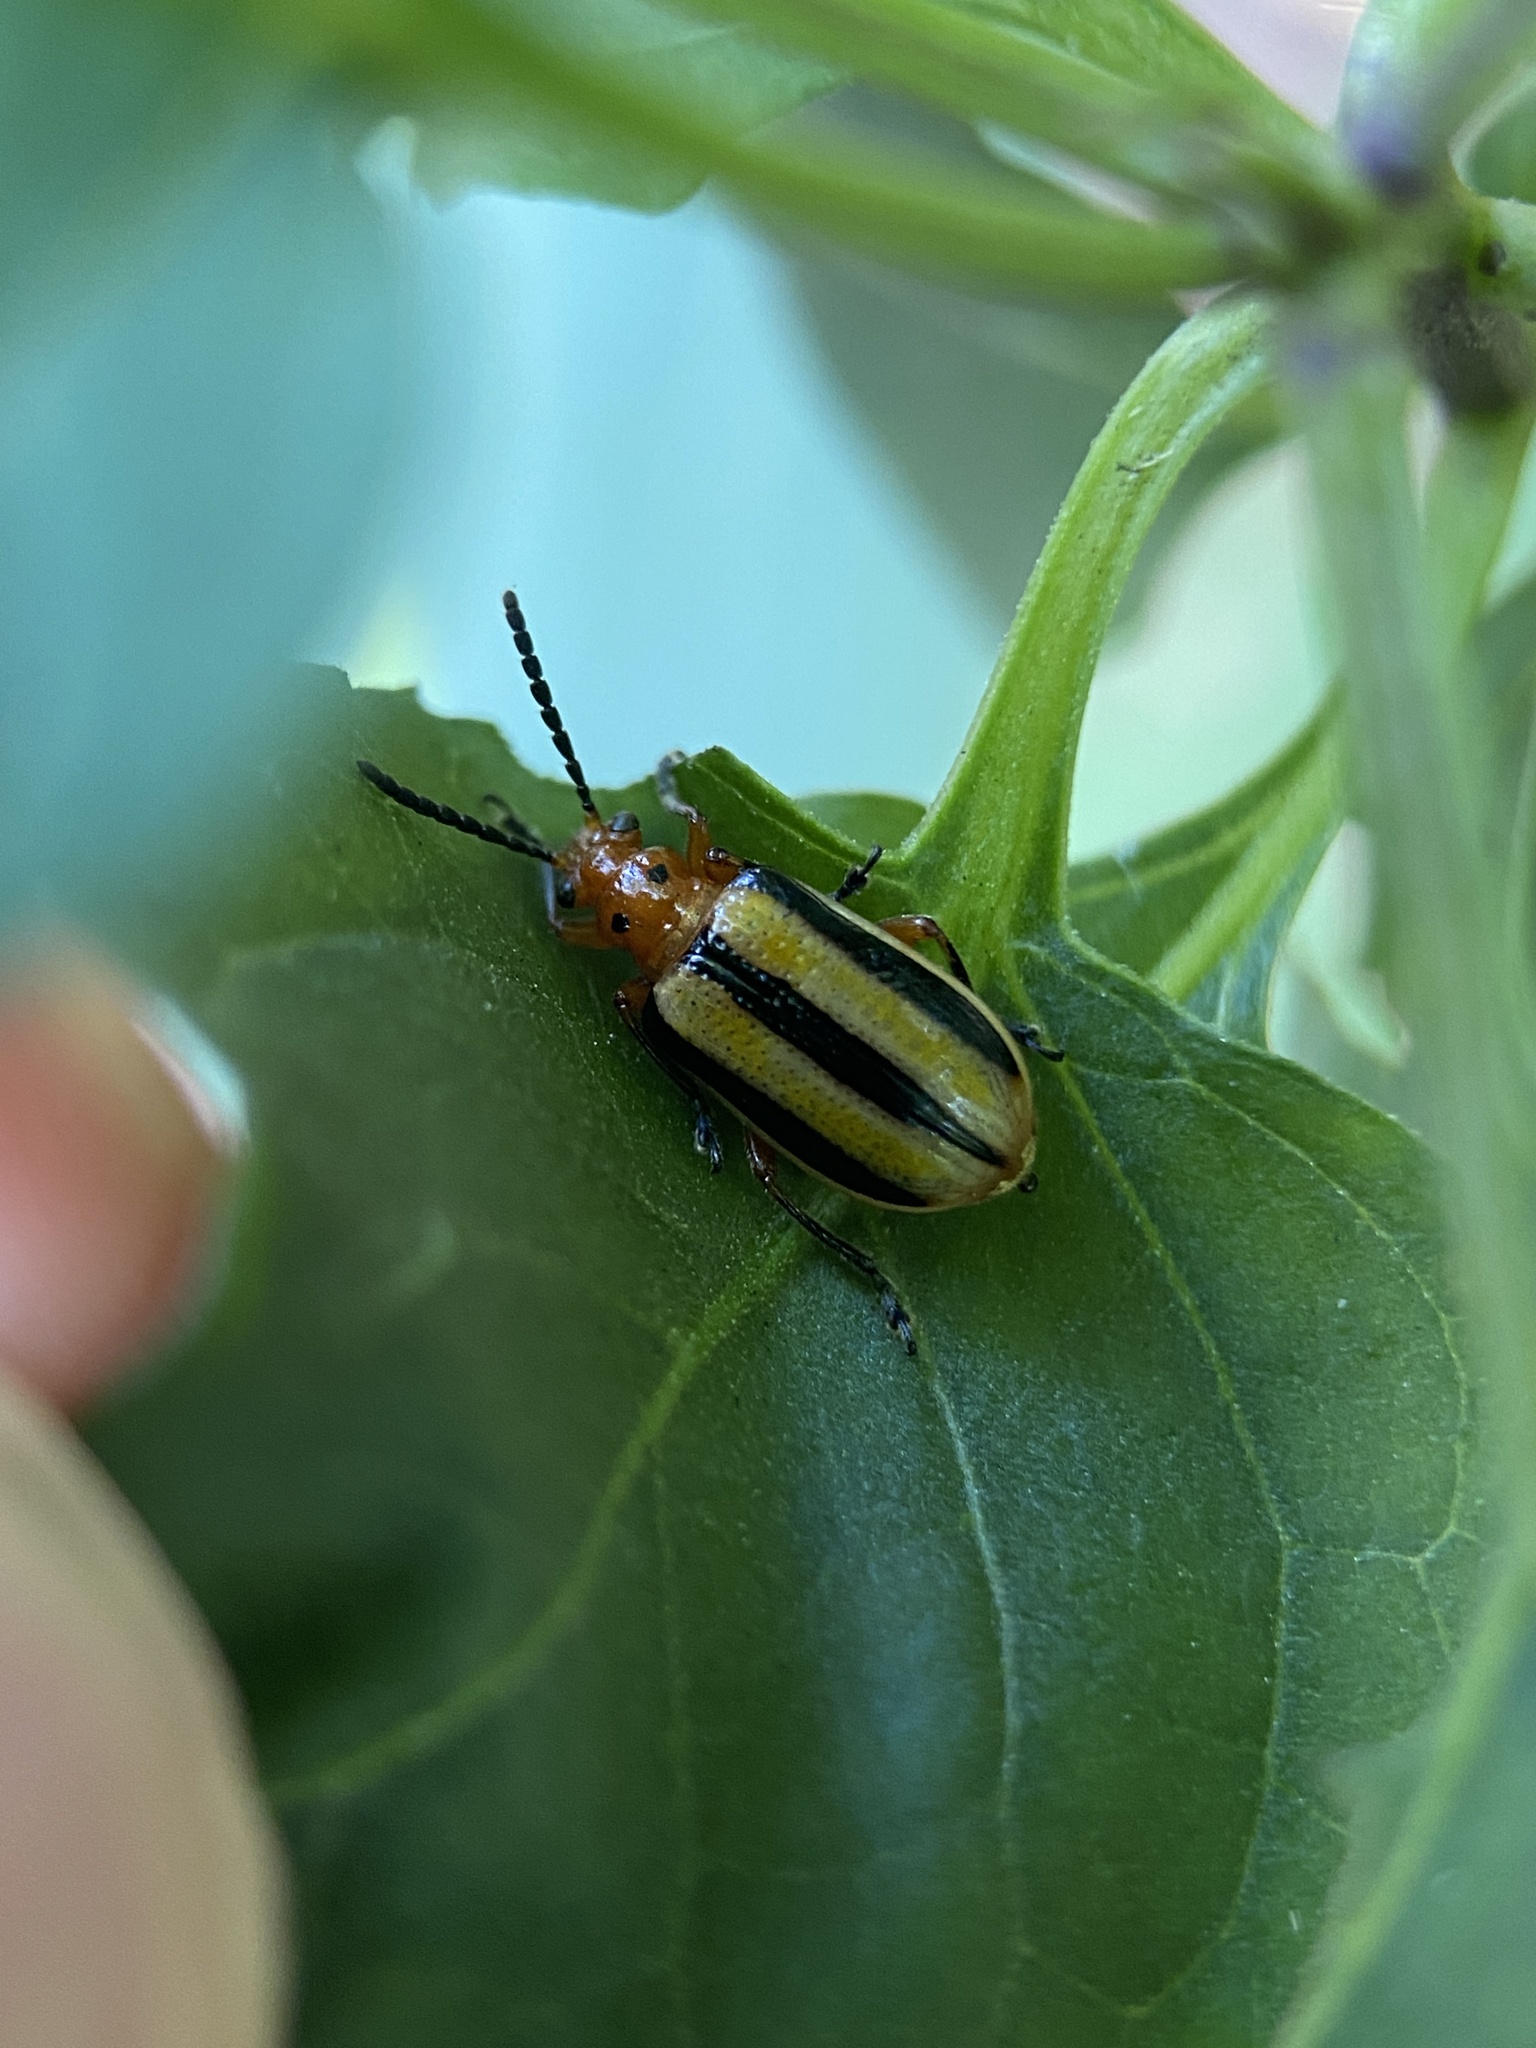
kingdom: Animalia
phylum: Arthropoda
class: Insecta
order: Coleoptera
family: Chrysomelidae
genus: Lema
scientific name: Lema daturaphila
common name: Leaf beetle
